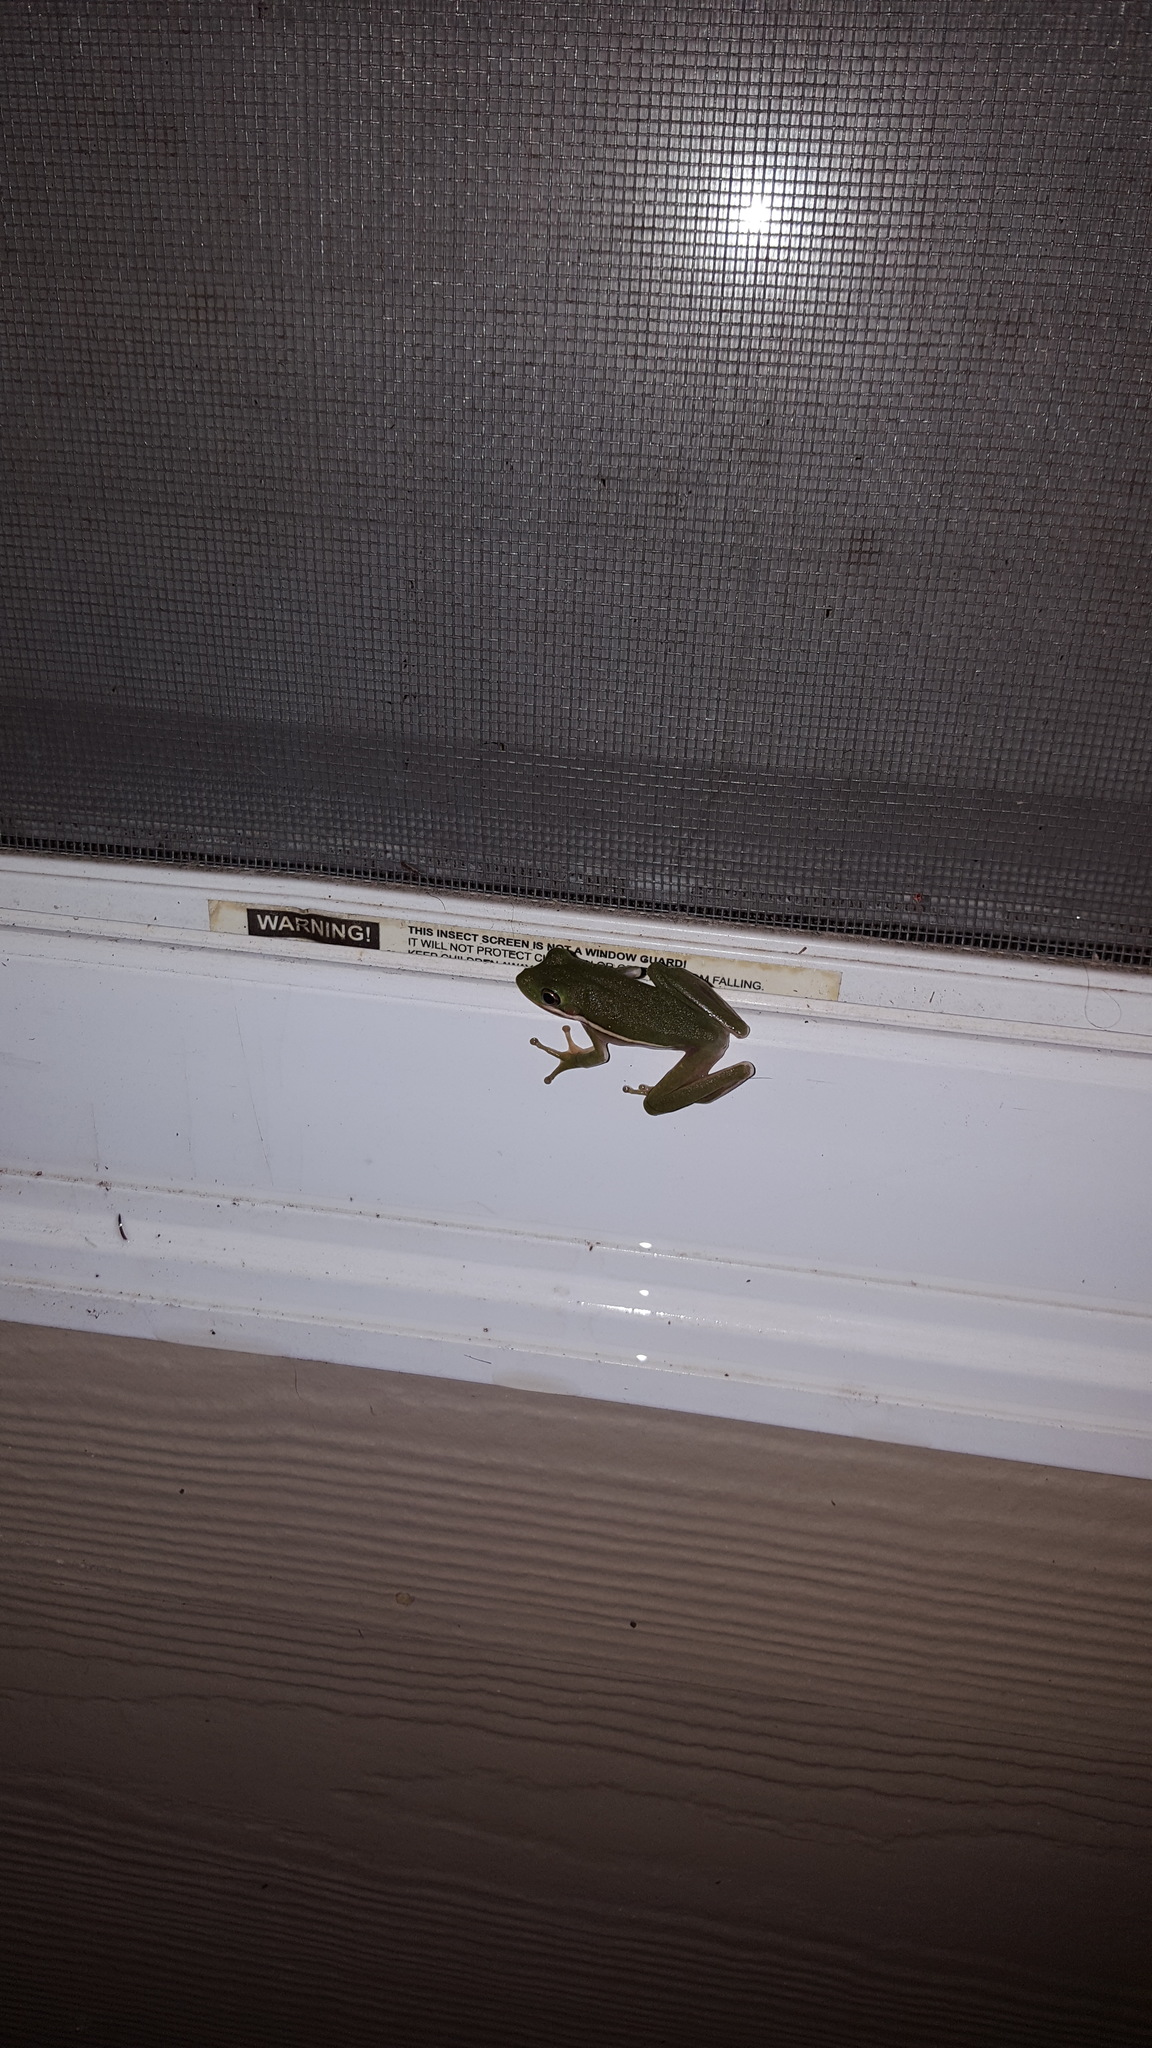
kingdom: Animalia
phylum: Chordata
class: Amphibia
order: Anura
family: Hylidae
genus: Dryophytes
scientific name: Dryophytes cinereus
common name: Green treefrog
